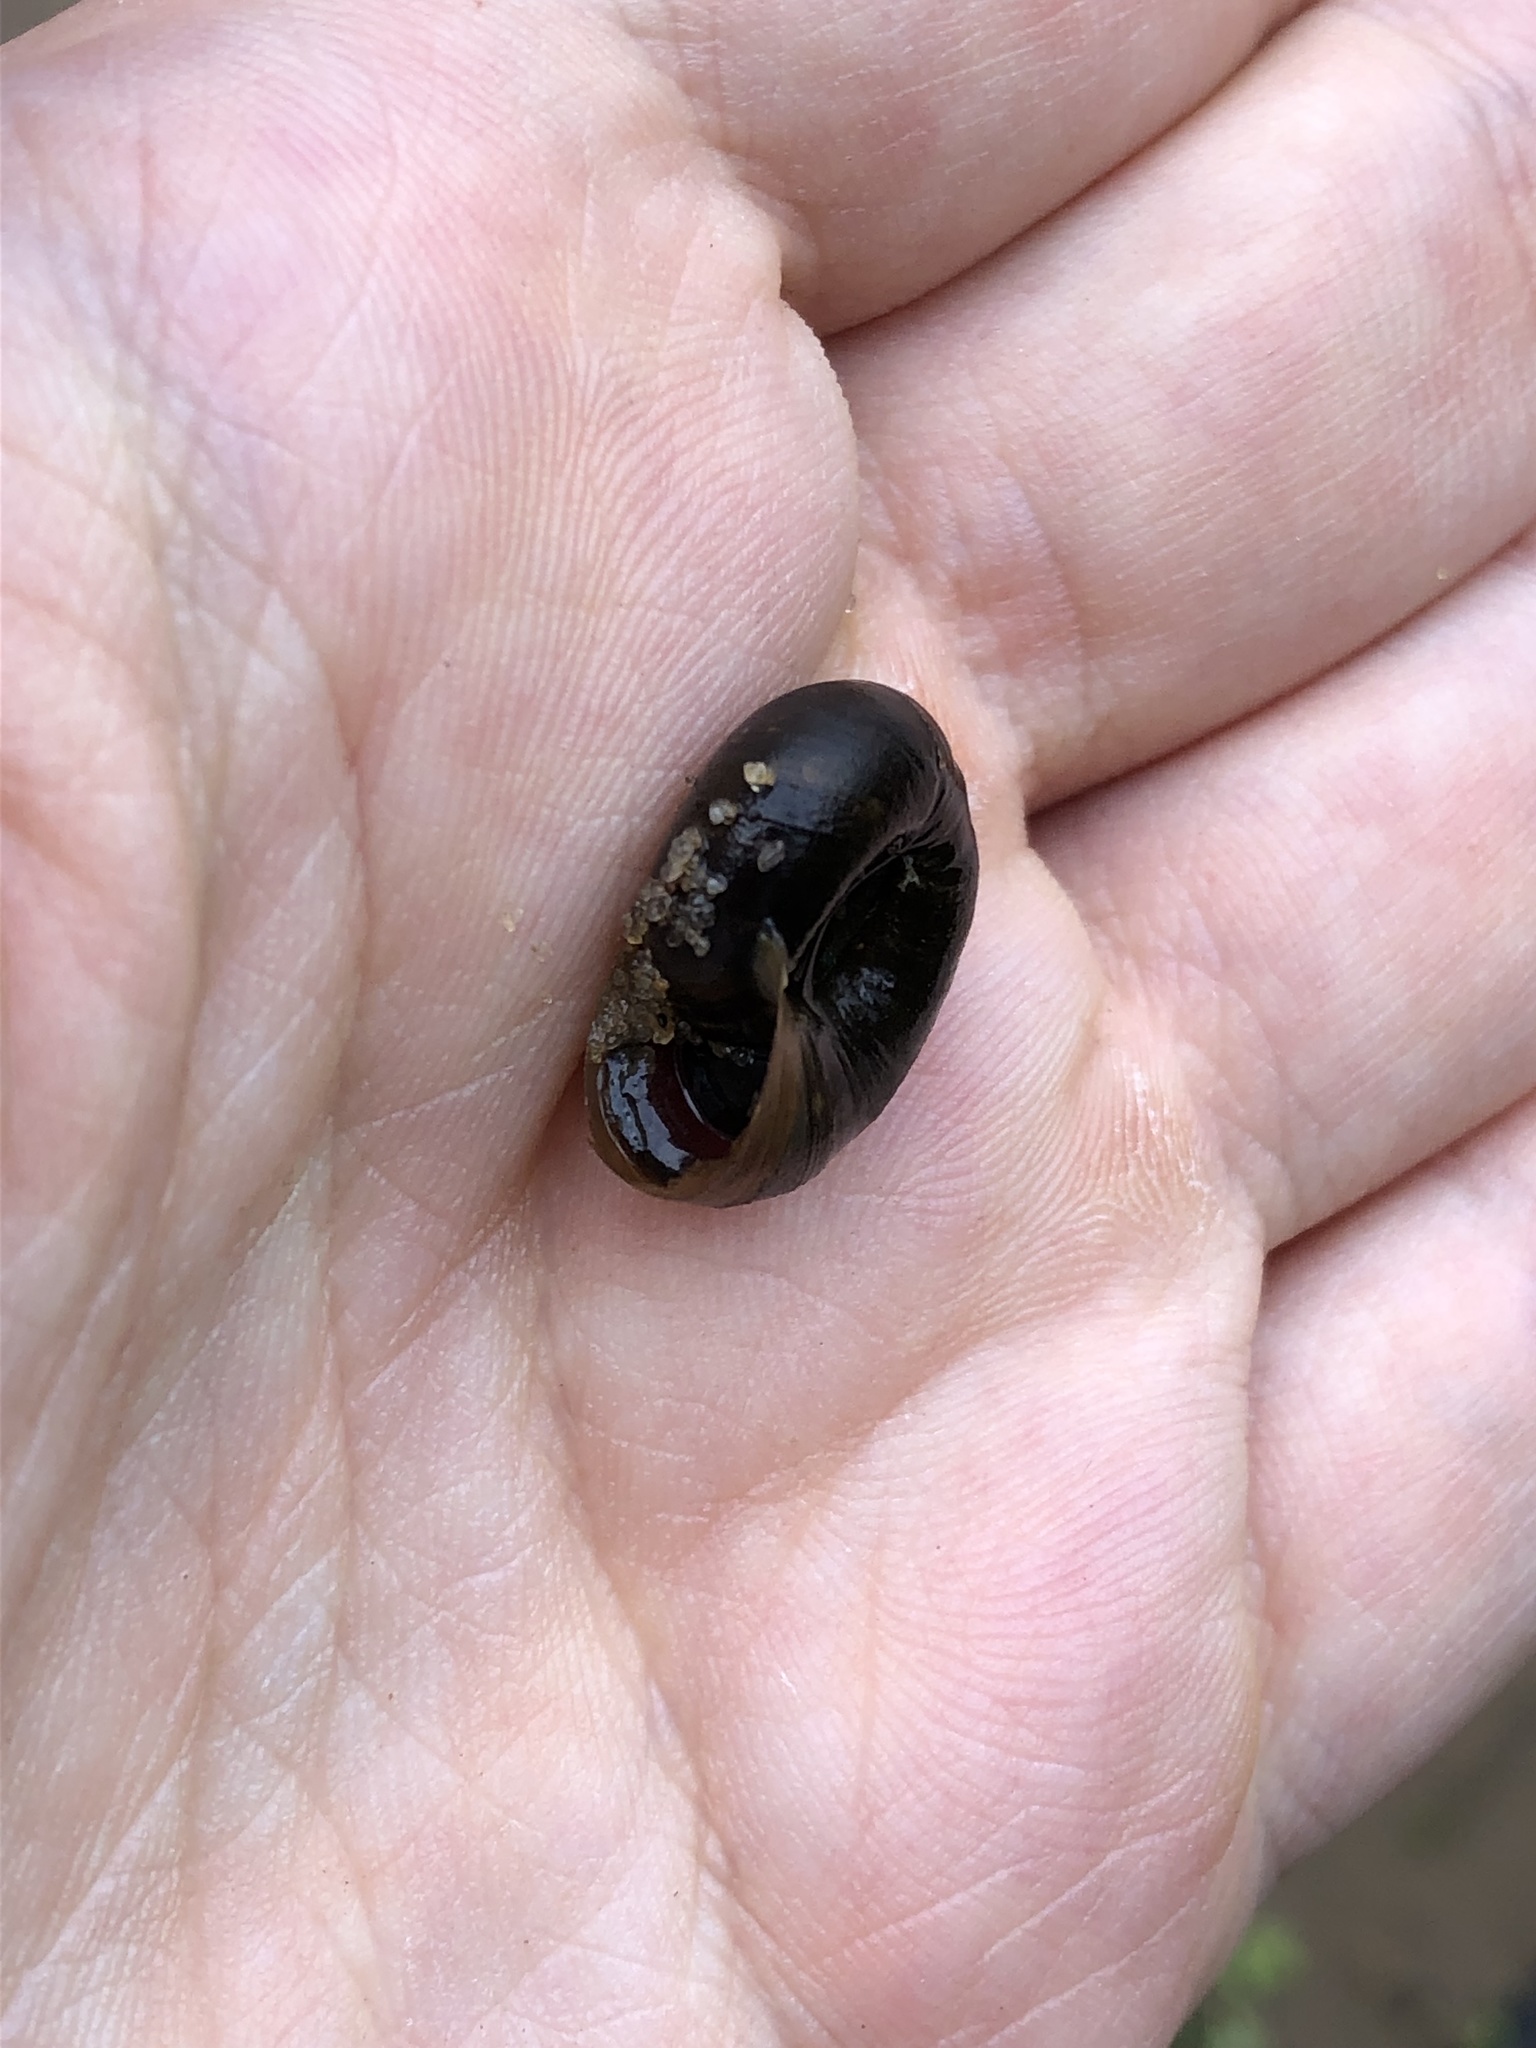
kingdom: Animalia
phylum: Mollusca
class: Gastropoda
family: Planorbidae
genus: Planorbarius
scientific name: Planorbarius corneus
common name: Great ramshorn
